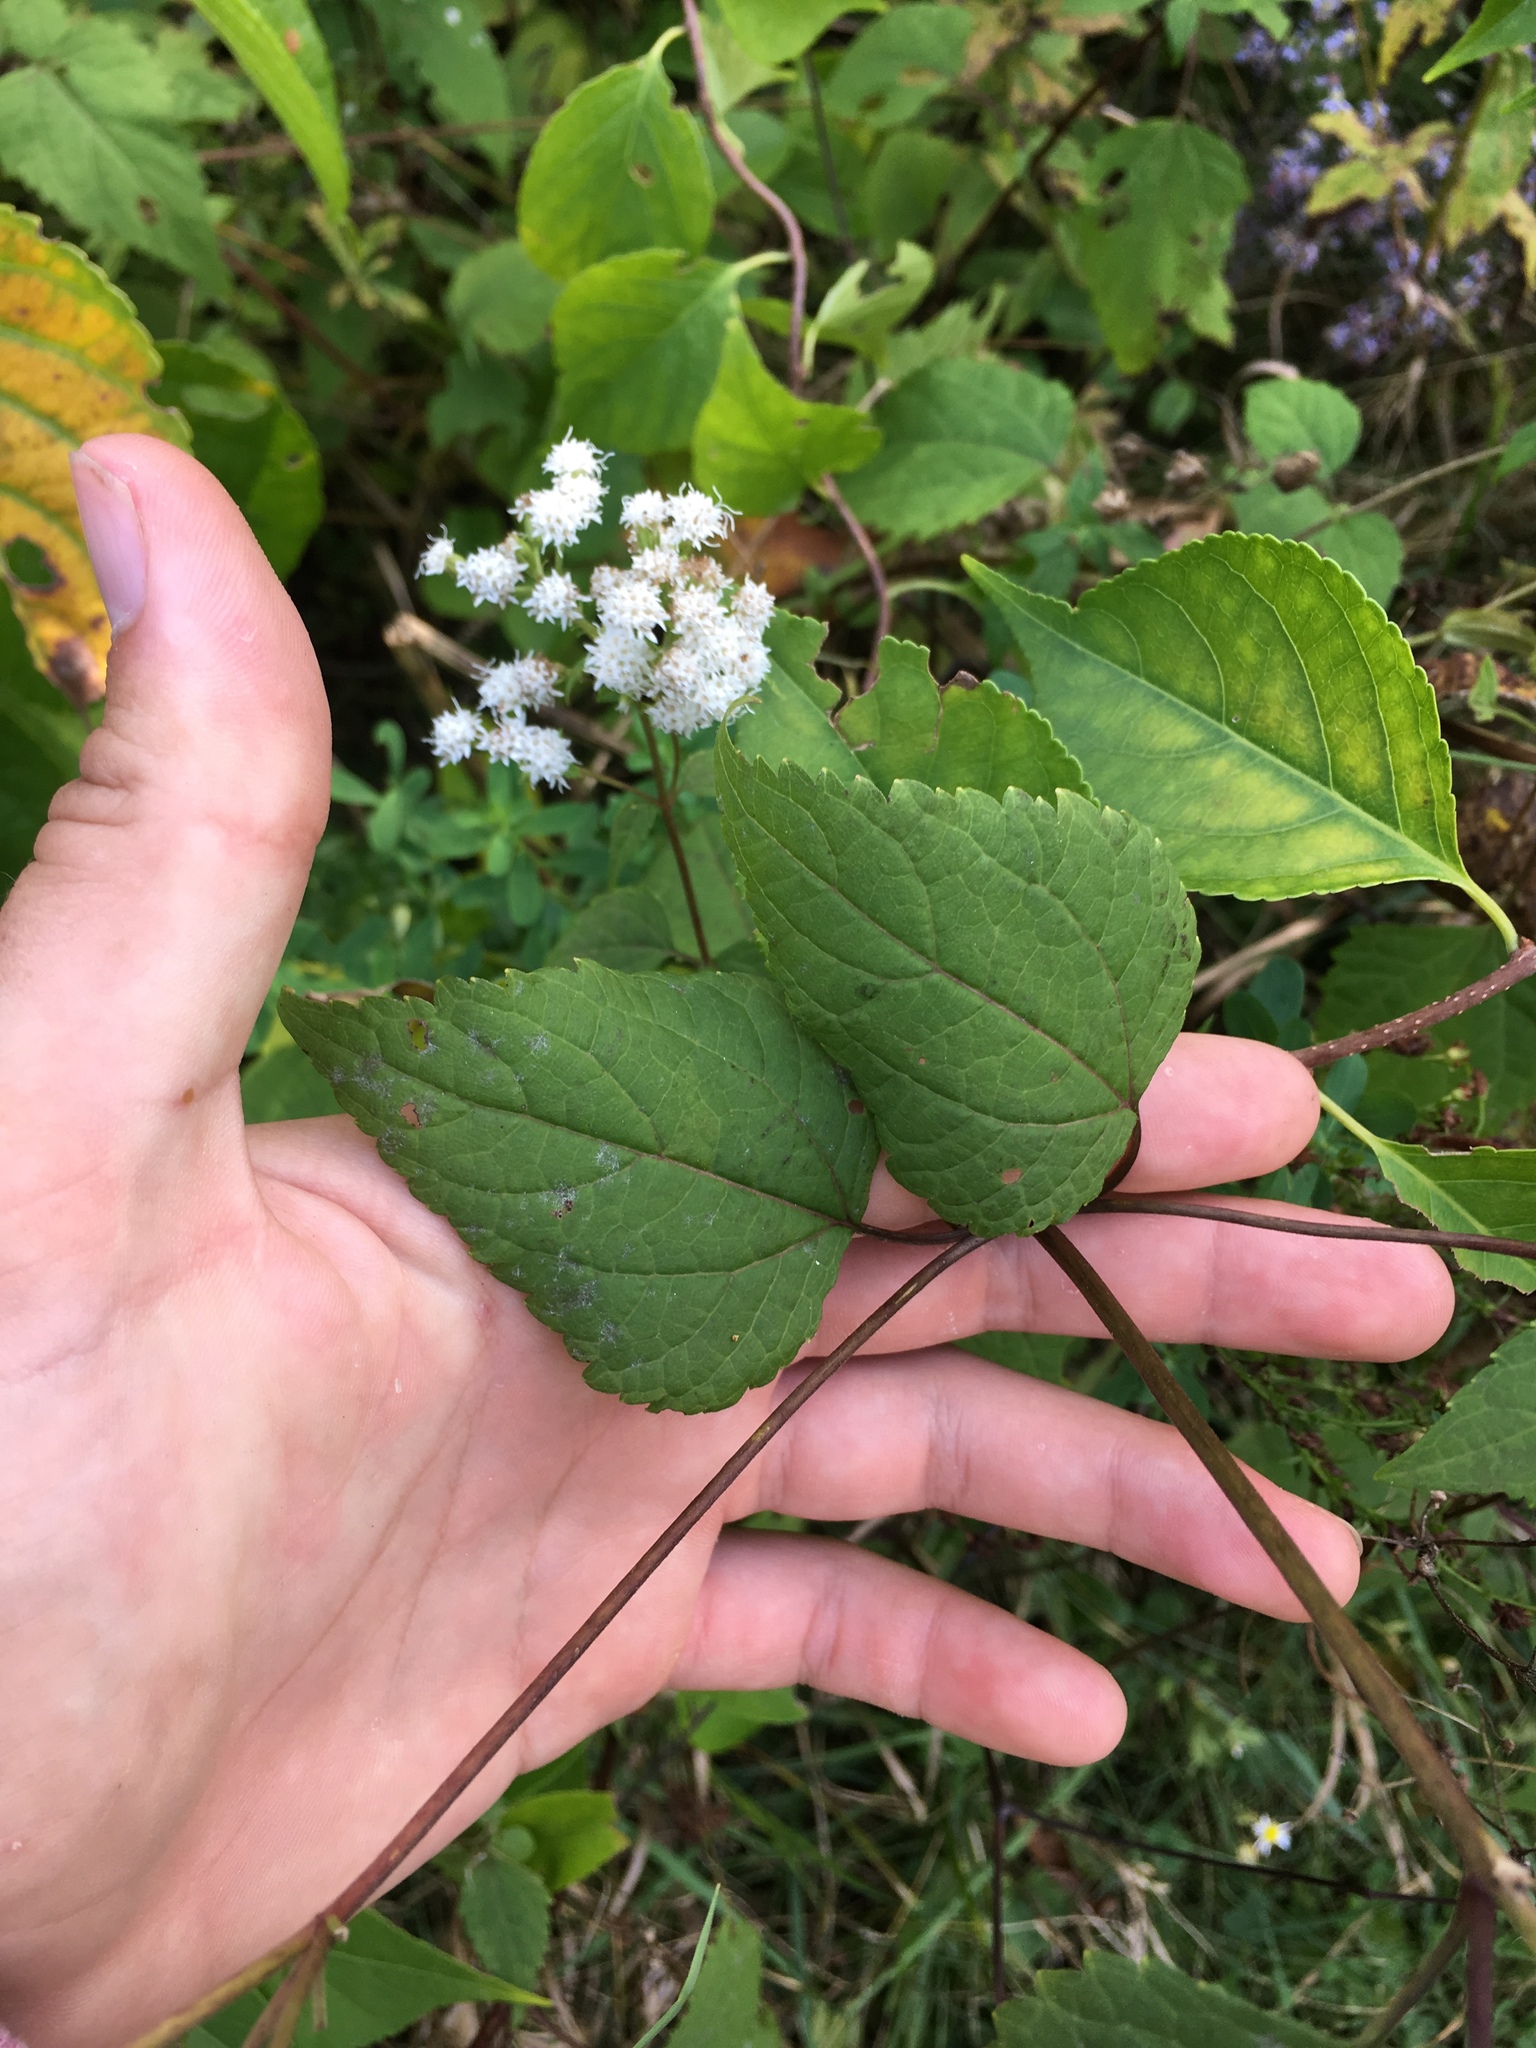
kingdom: Plantae
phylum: Tracheophyta
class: Magnoliopsida
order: Asterales
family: Asteraceae
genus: Ageratina
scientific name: Ageratina altissima
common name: White snakeroot
